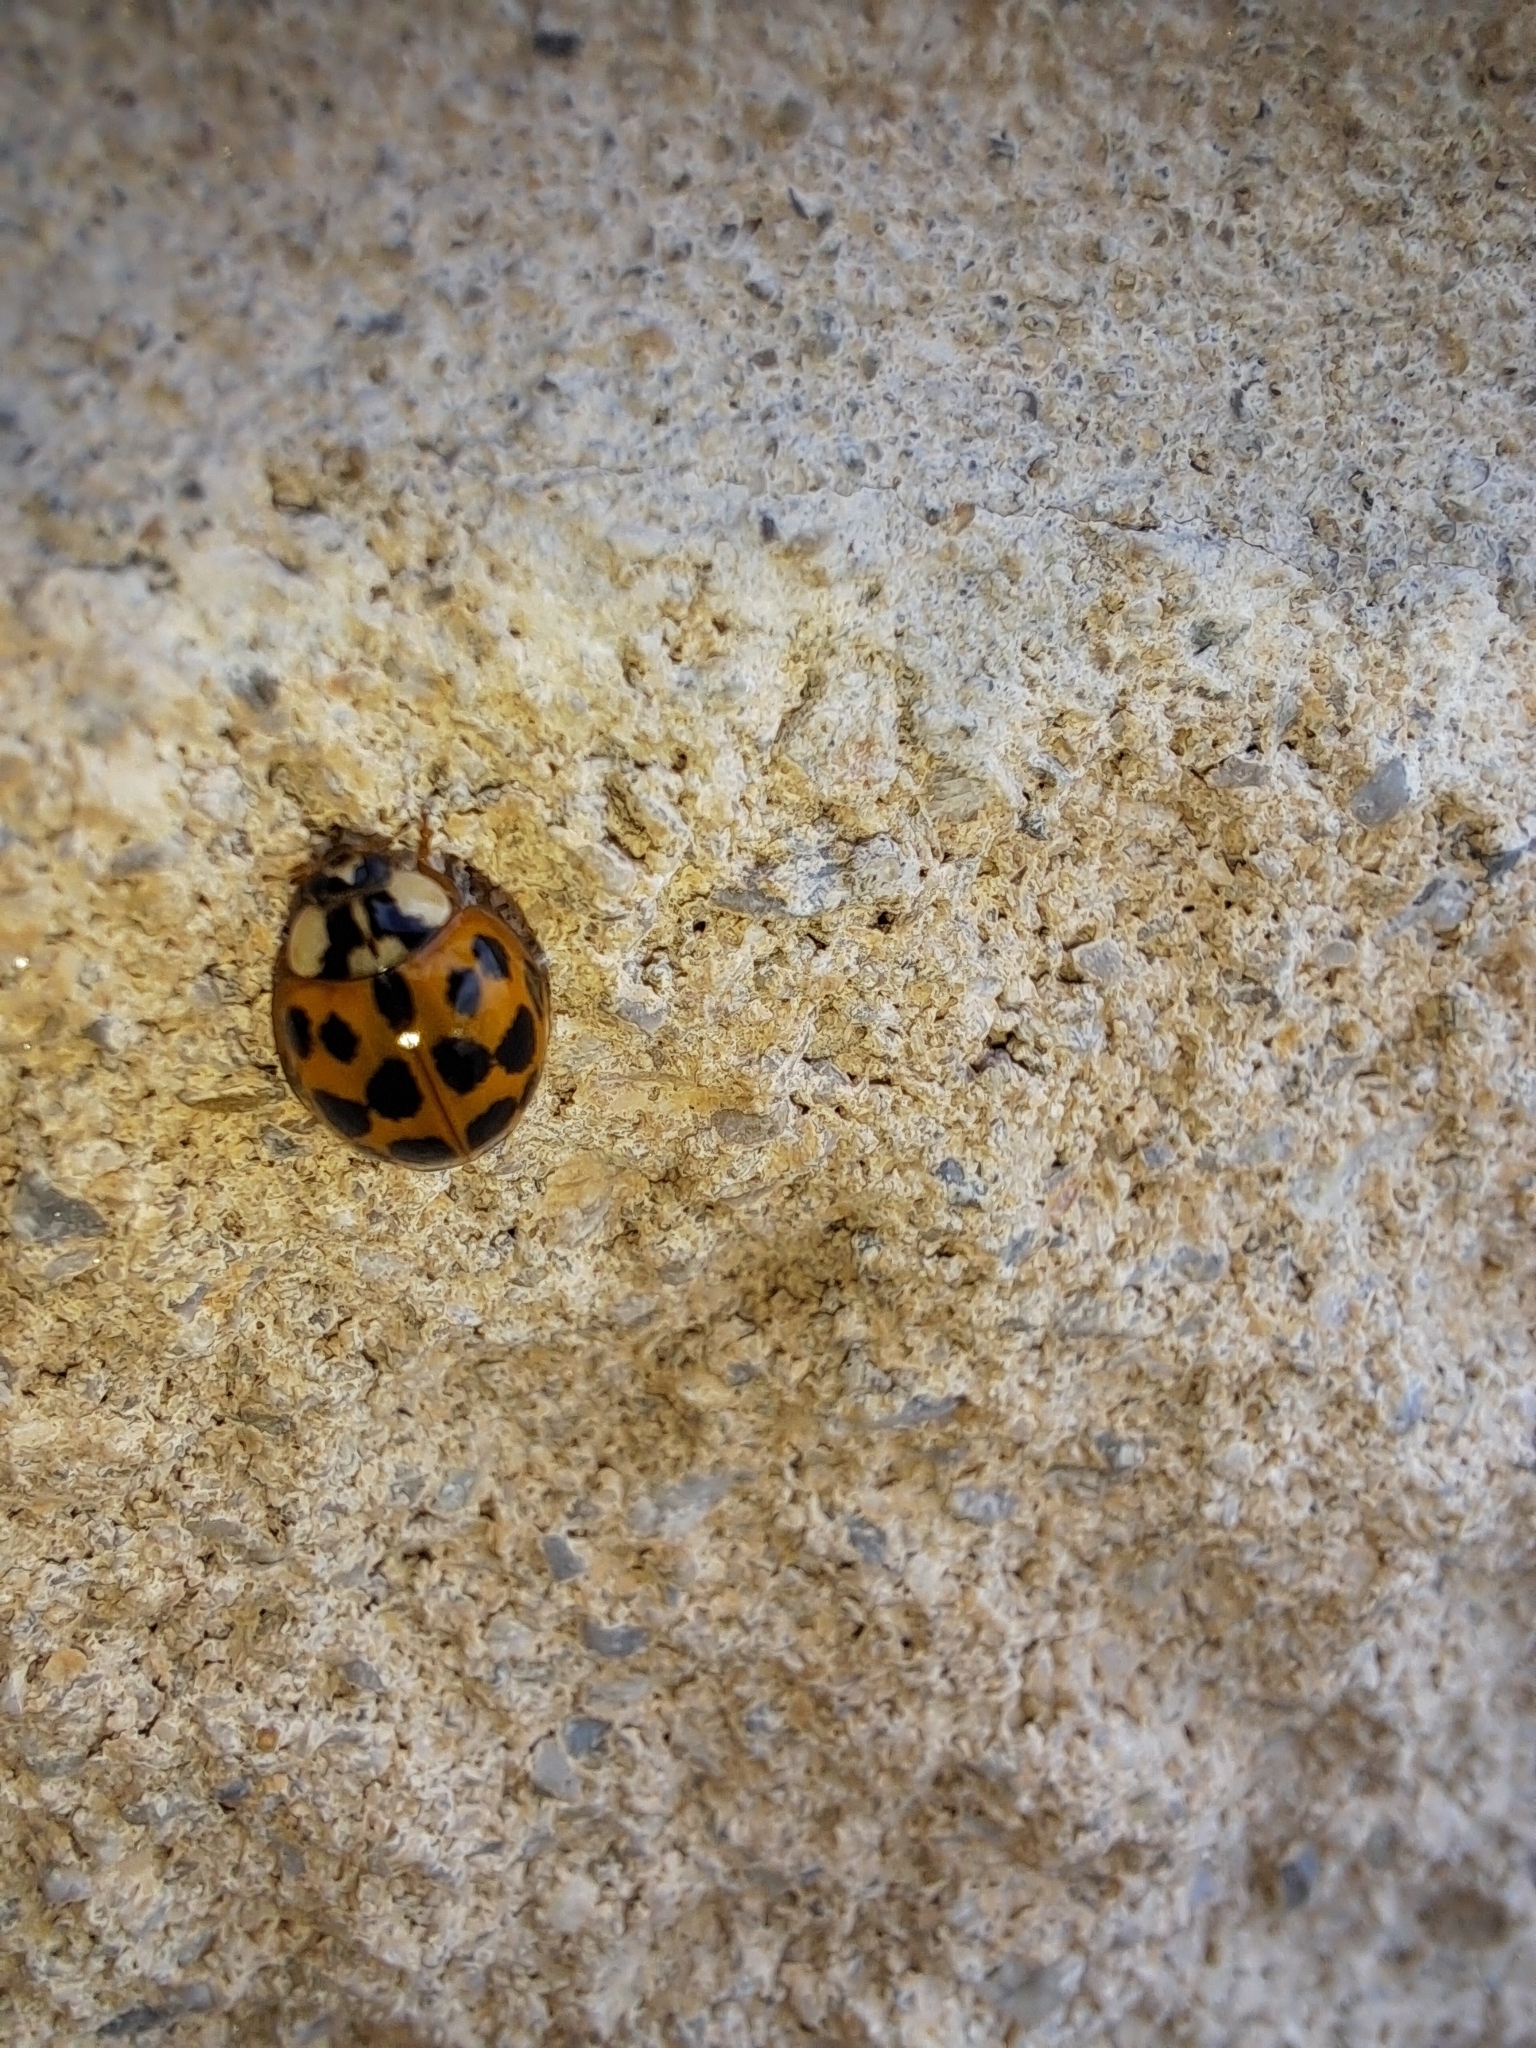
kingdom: Animalia
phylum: Arthropoda
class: Insecta
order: Coleoptera
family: Coccinellidae
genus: Harmonia
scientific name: Harmonia axyridis
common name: Harlequin ladybird
